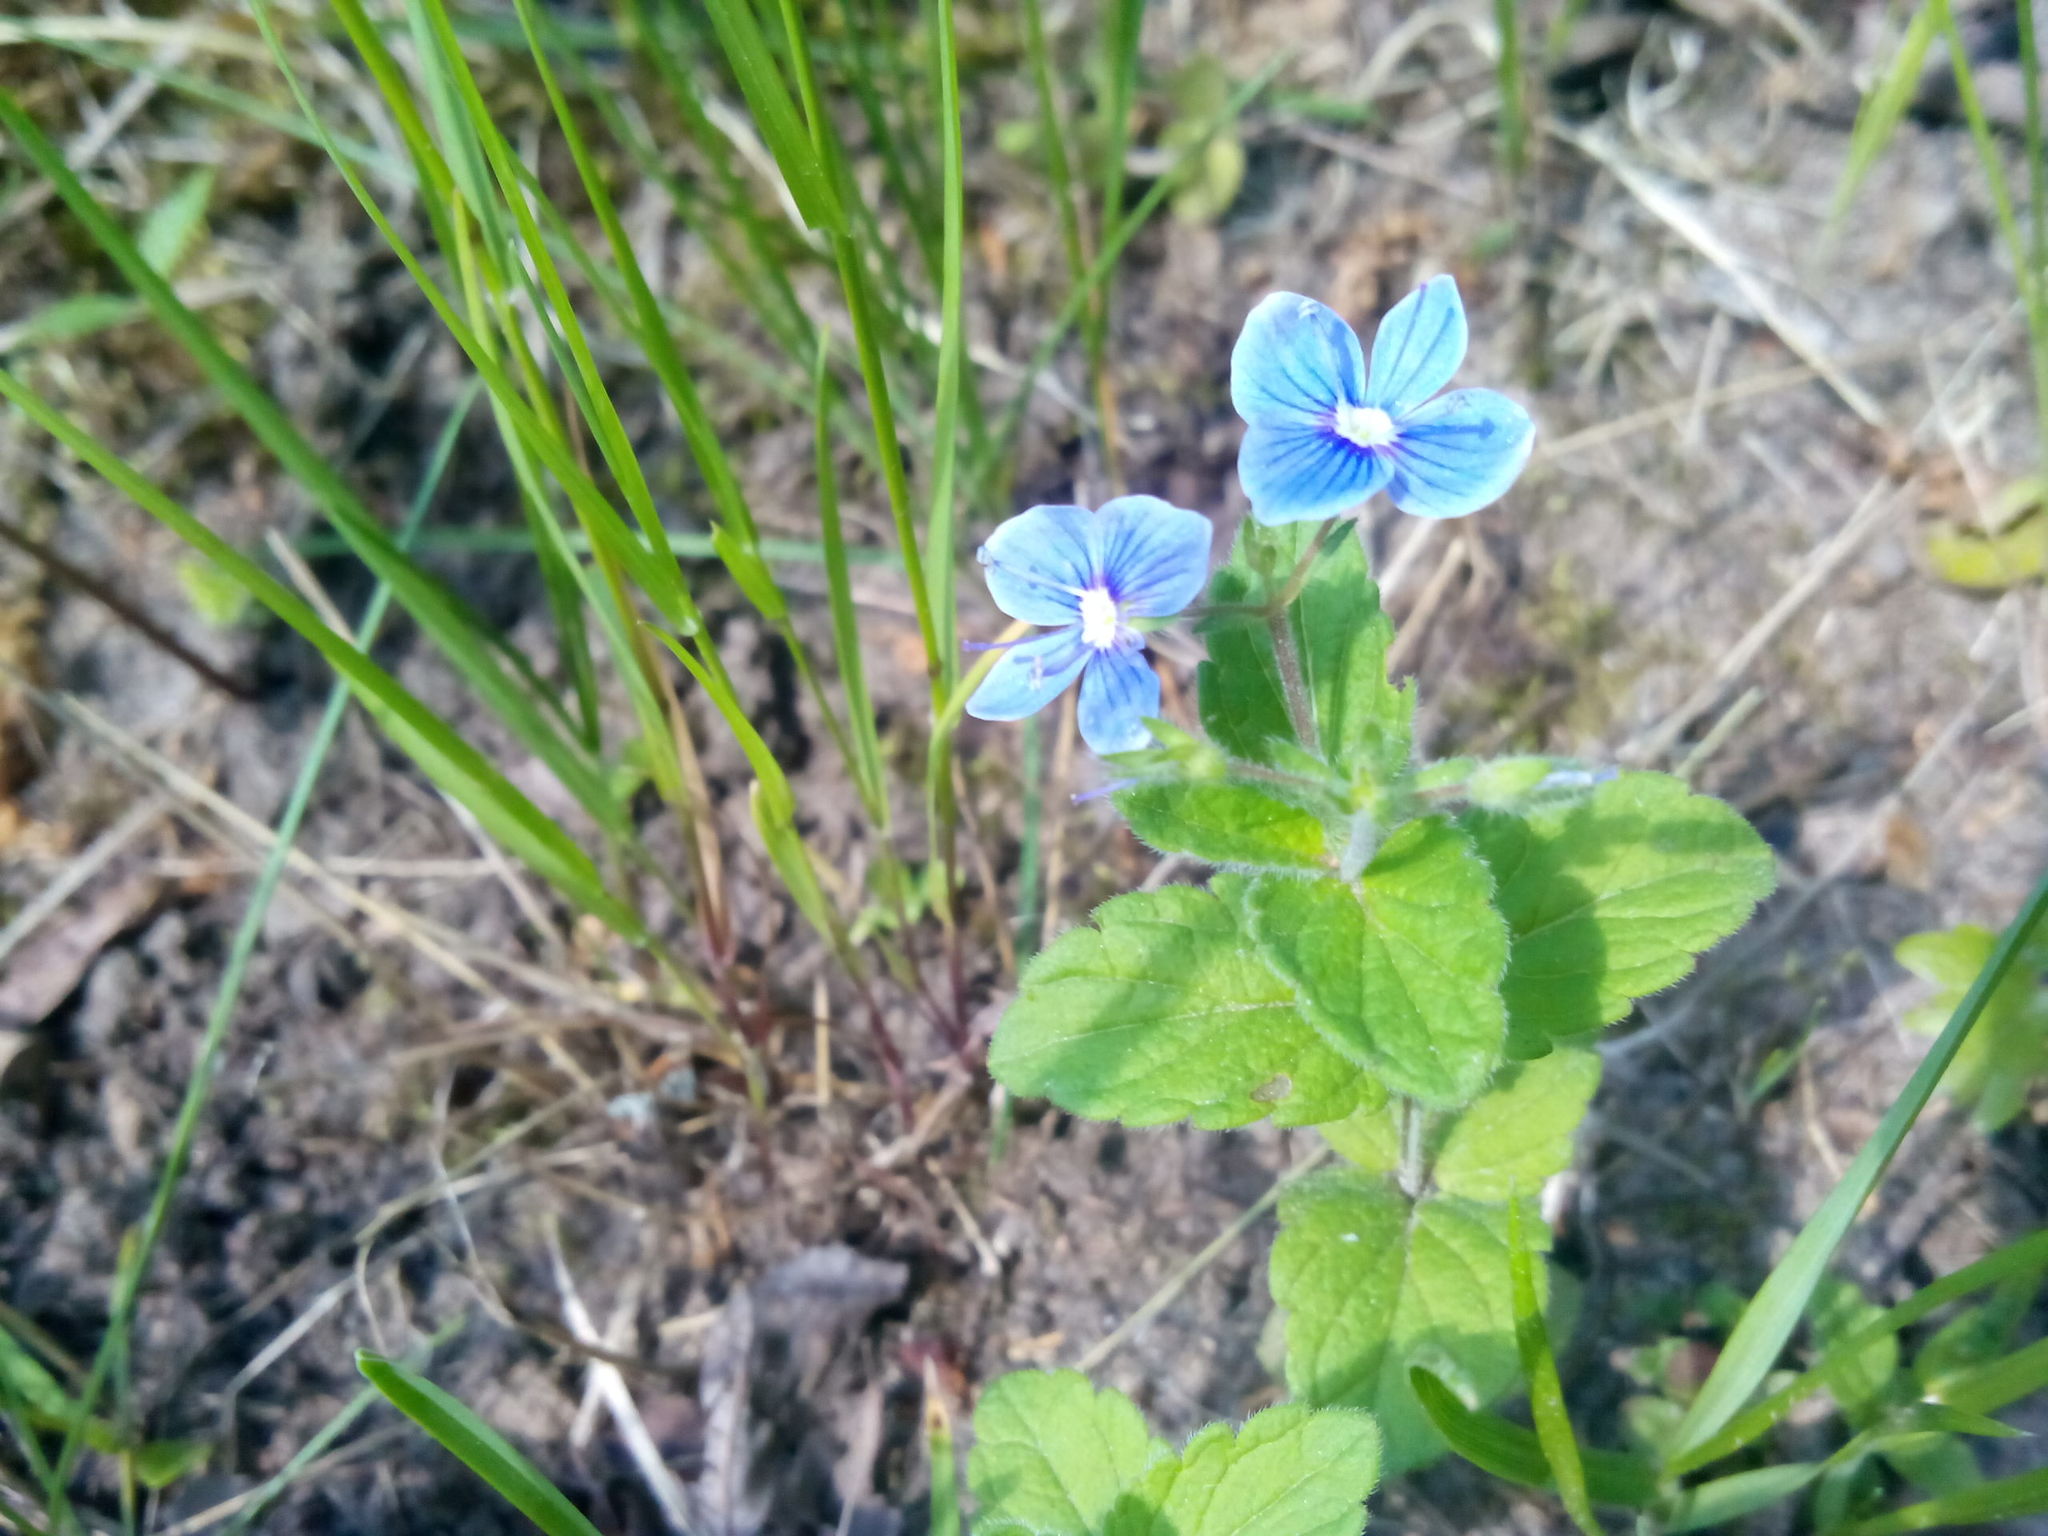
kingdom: Plantae
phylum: Tracheophyta
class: Magnoliopsida
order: Lamiales
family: Plantaginaceae
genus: Veronica
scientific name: Veronica chamaedrys
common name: Germander speedwell
